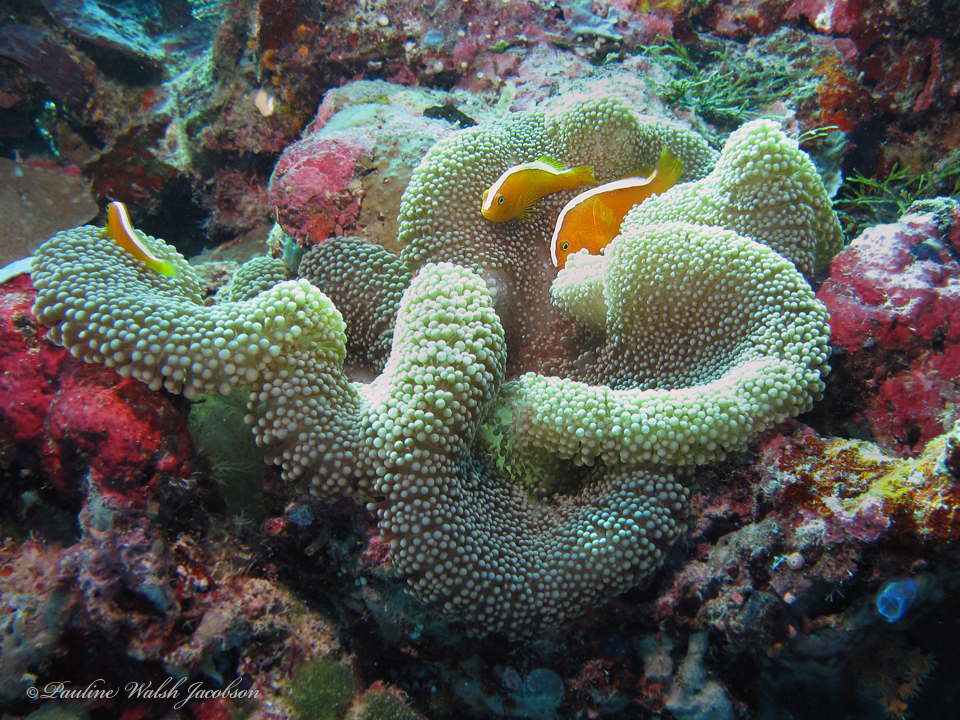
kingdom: Animalia
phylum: Chordata
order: Perciformes
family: Pomacentridae
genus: Amphiprion
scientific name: Amphiprion sandaracinos
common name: Orange anemonefish
